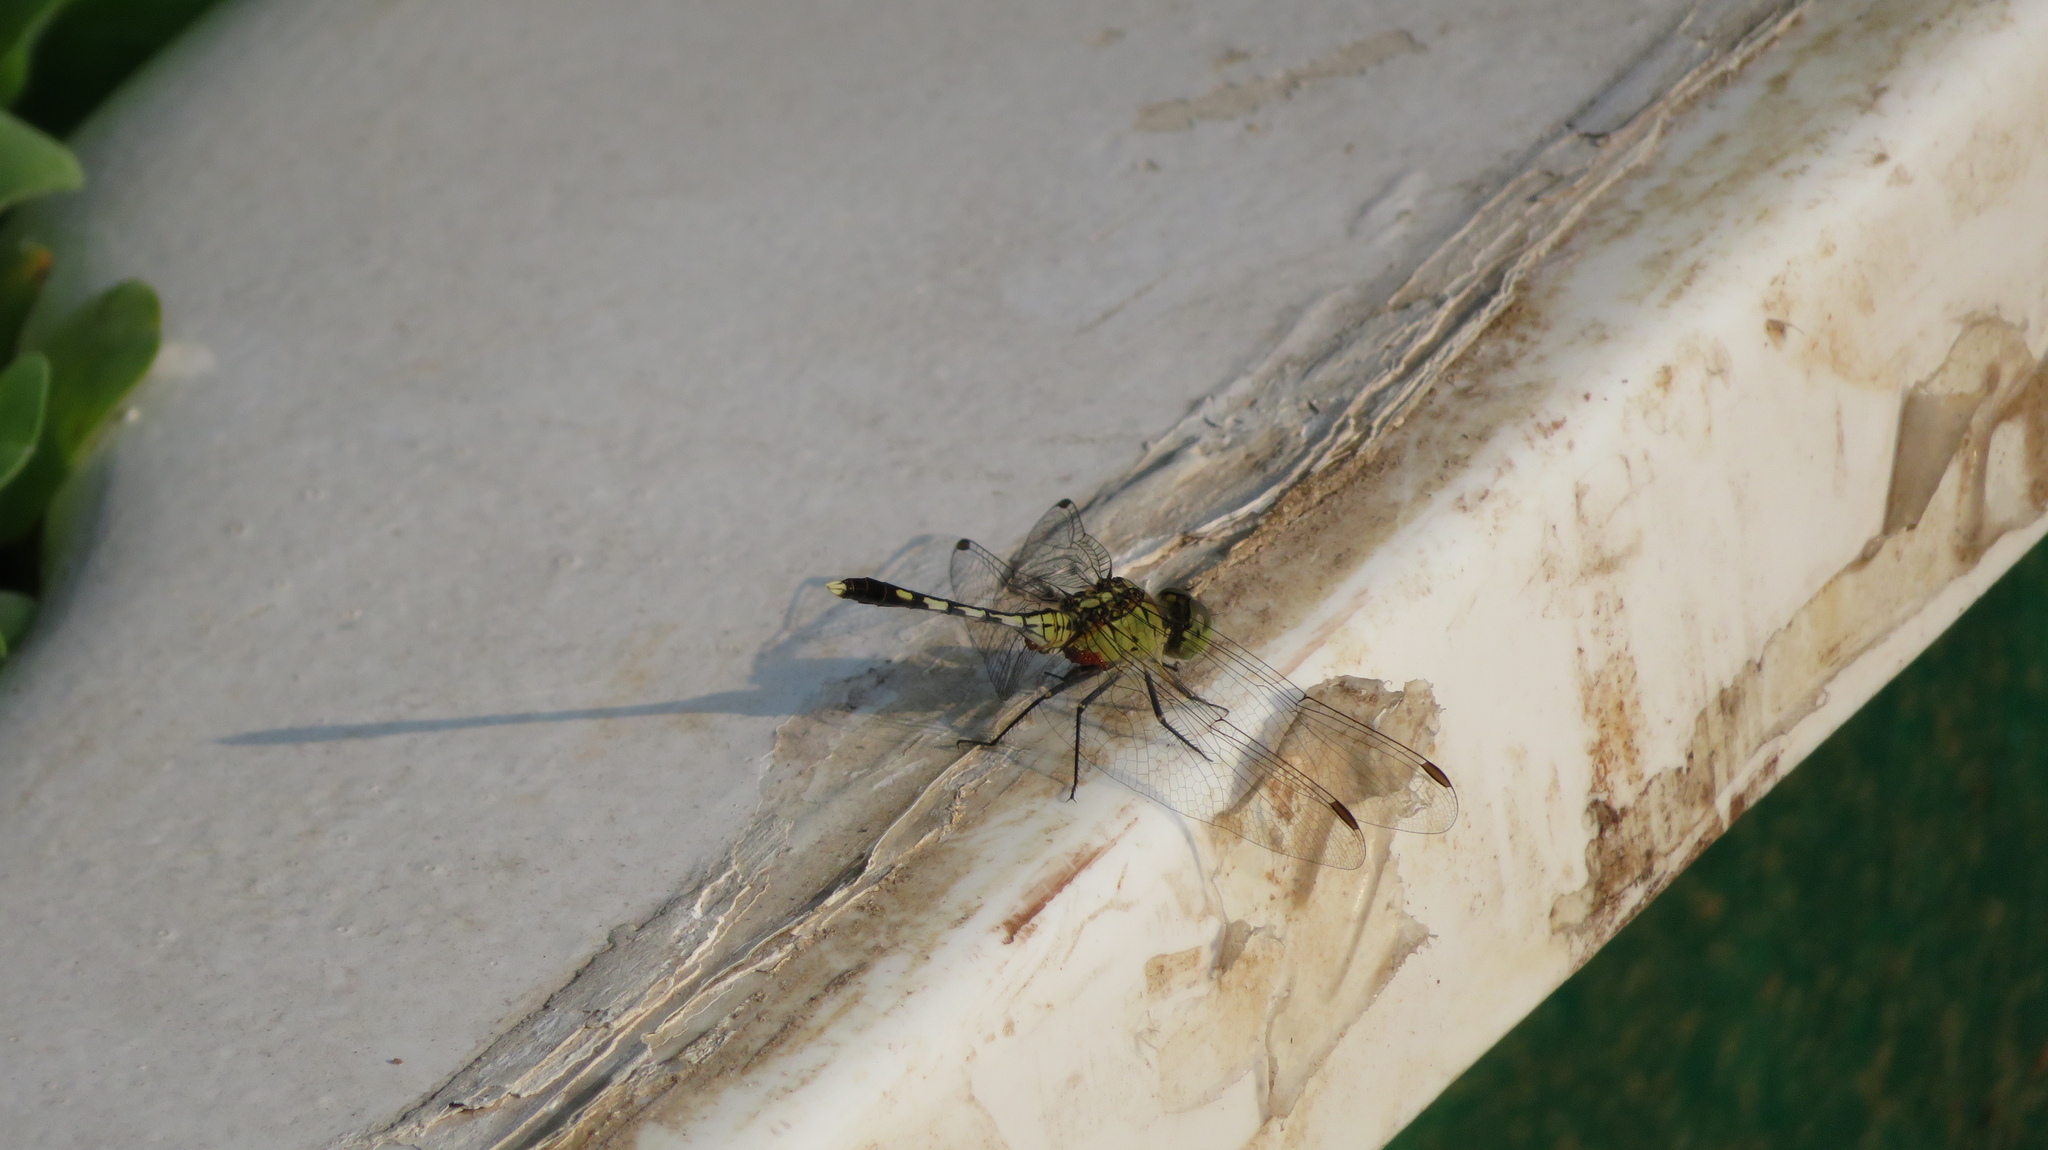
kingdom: Animalia
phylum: Arthropoda
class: Insecta
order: Odonata
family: Libellulidae
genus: Diplacodes
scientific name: Diplacodes trivialis
